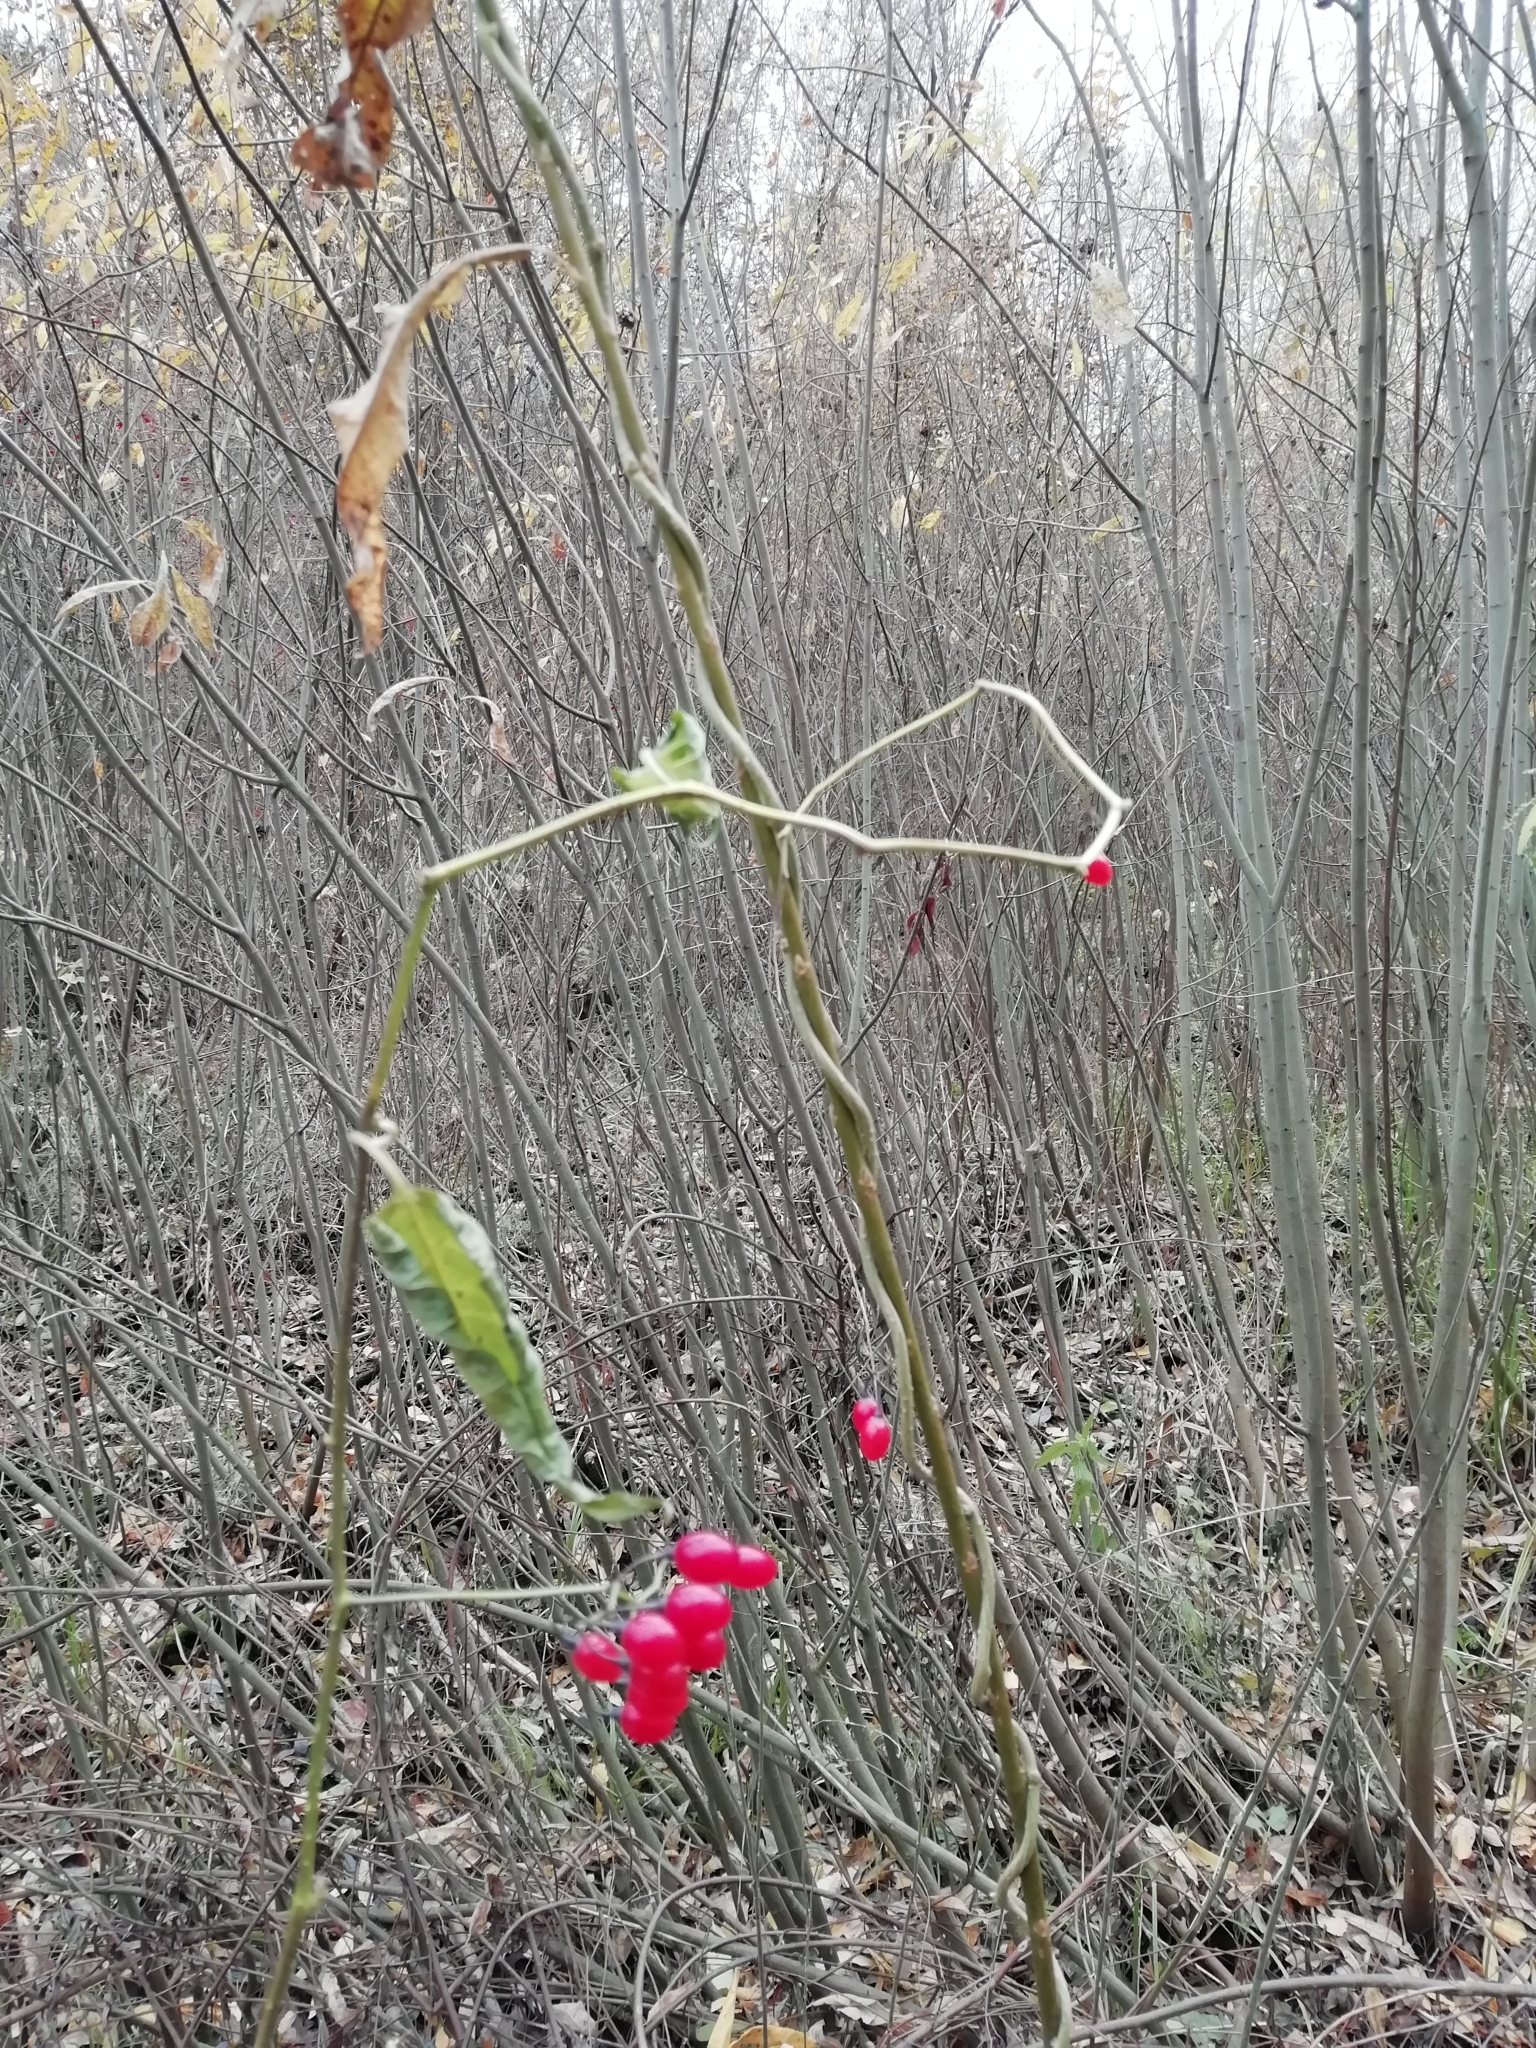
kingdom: Plantae
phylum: Tracheophyta
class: Magnoliopsida
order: Solanales
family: Solanaceae
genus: Solanum
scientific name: Solanum dulcamara
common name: Climbing nightshade
